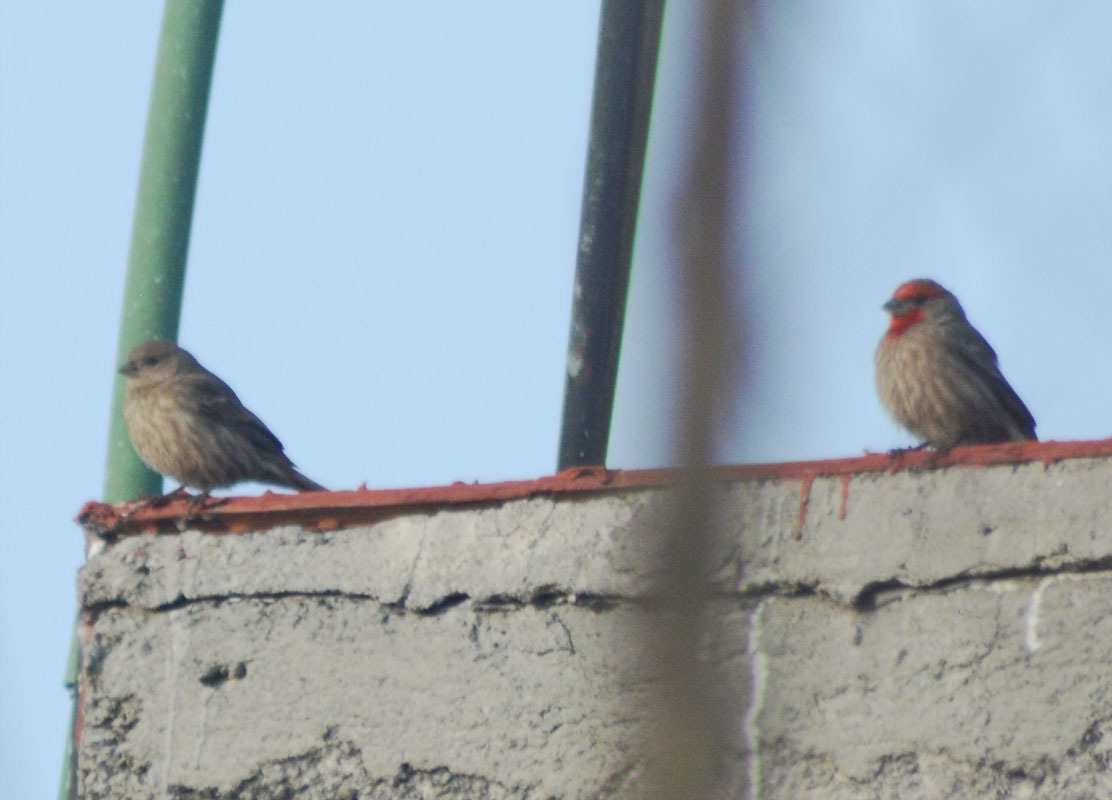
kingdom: Animalia
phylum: Chordata
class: Aves
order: Passeriformes
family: Fringillidae
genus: Haemorhous
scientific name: Haemorhous mexicanus
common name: House finch
